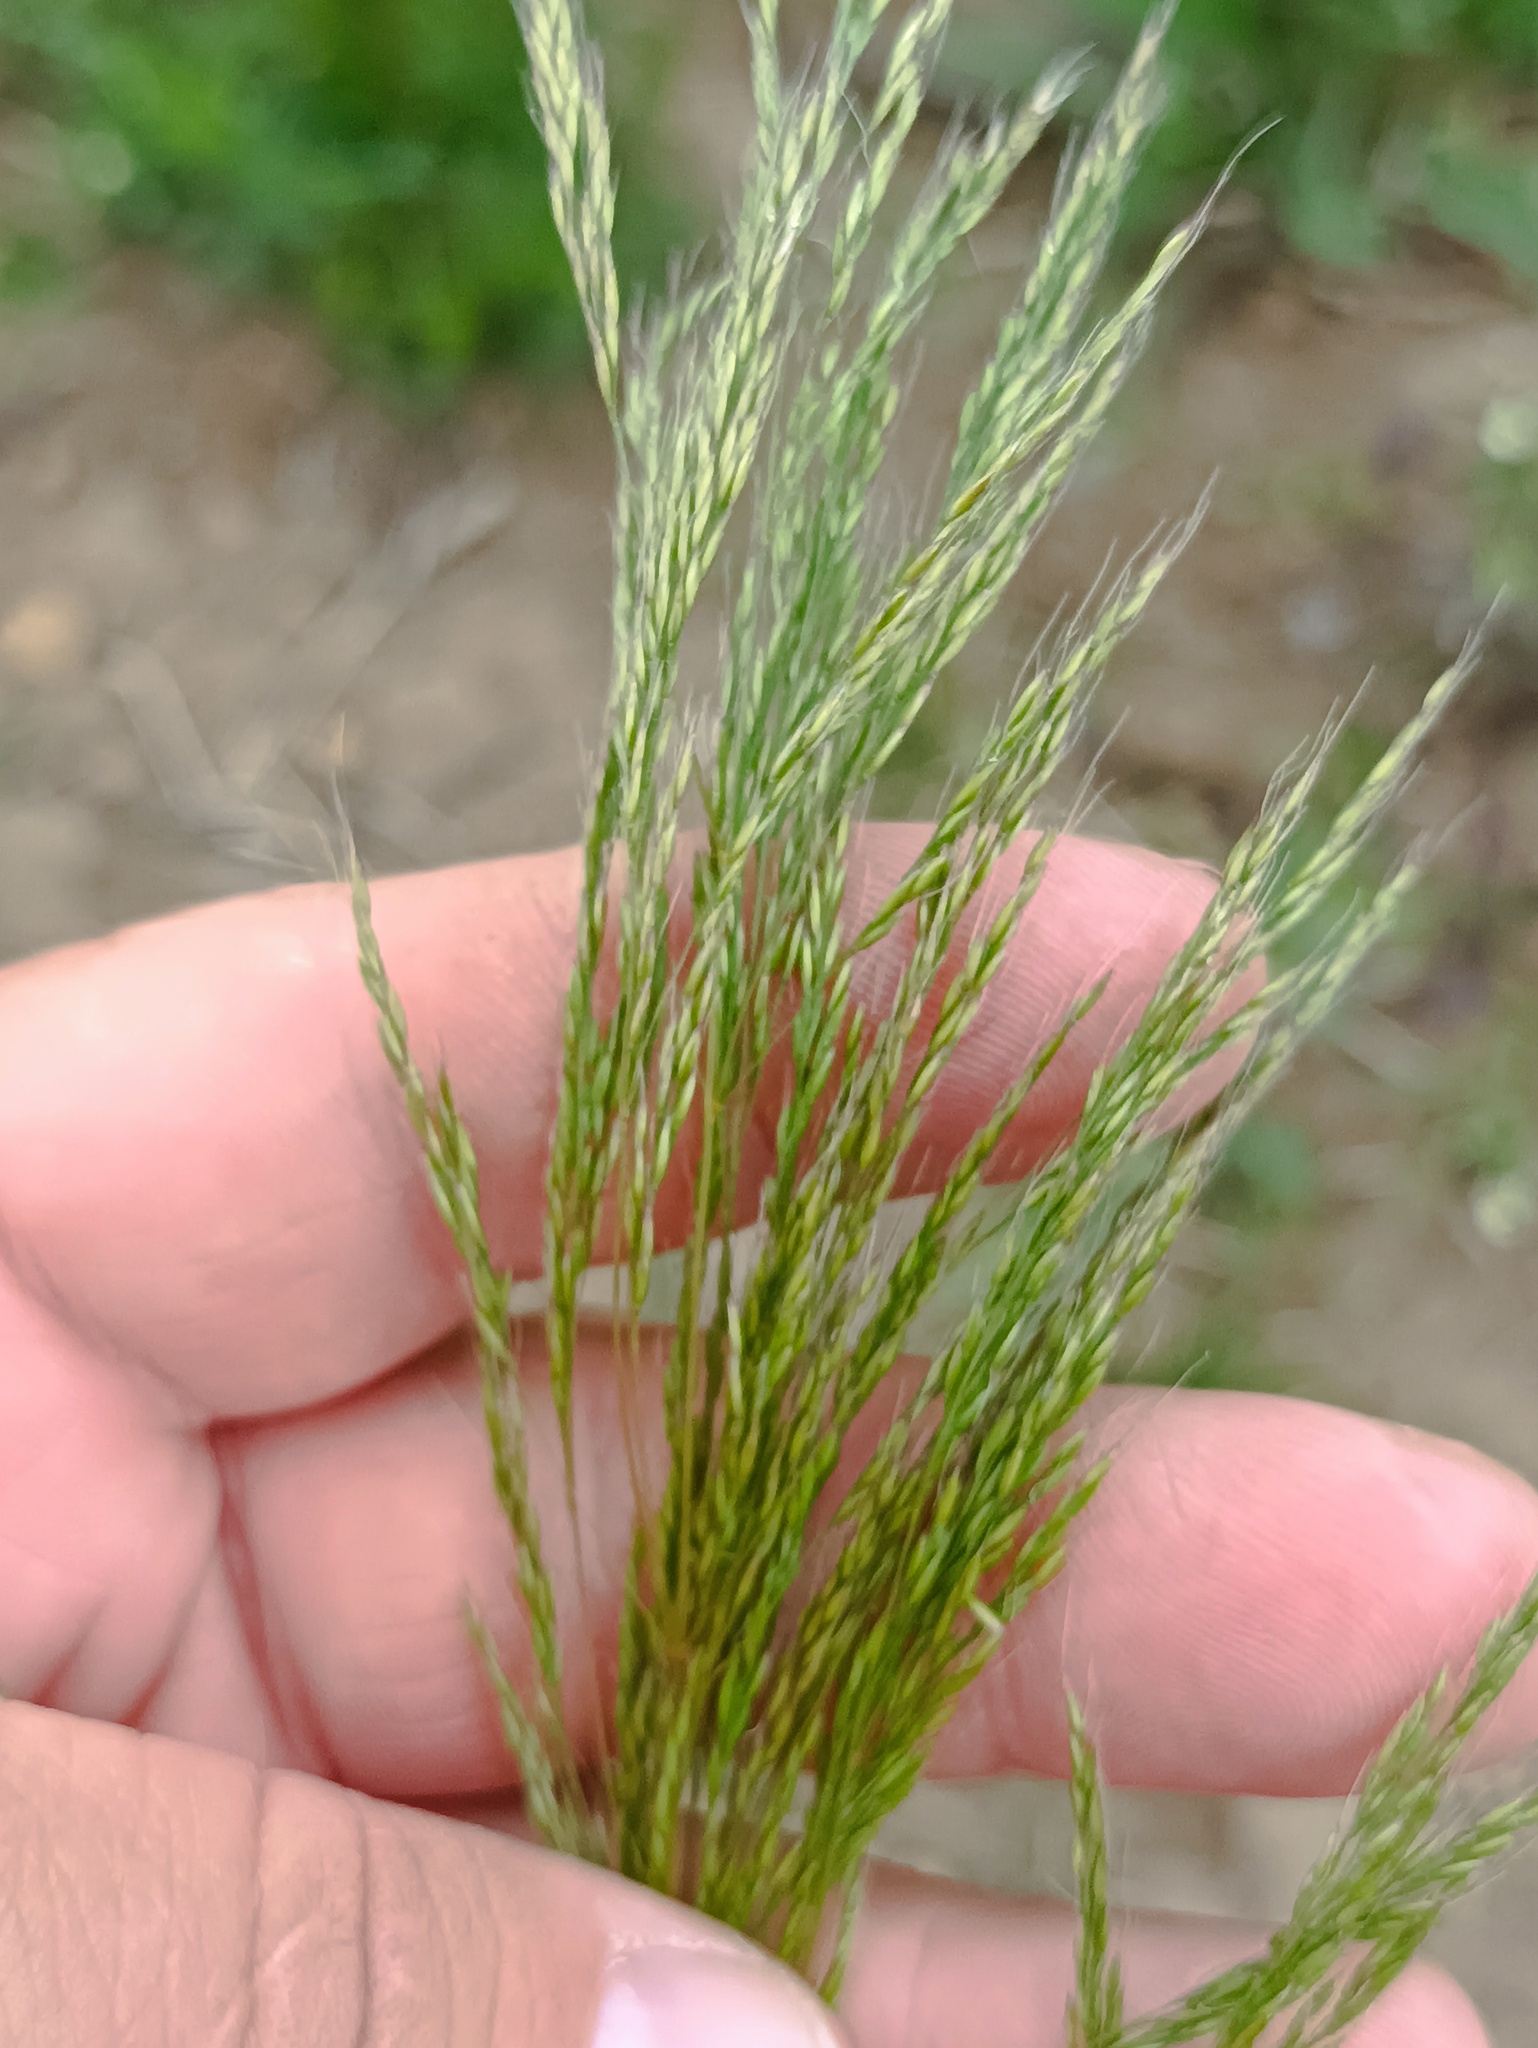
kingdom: Plantae
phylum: Tracheophyta
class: Liliopsida
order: Poales
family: Poaceae
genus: Apera
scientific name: Apera spica-venti
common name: Loose silky-bent
